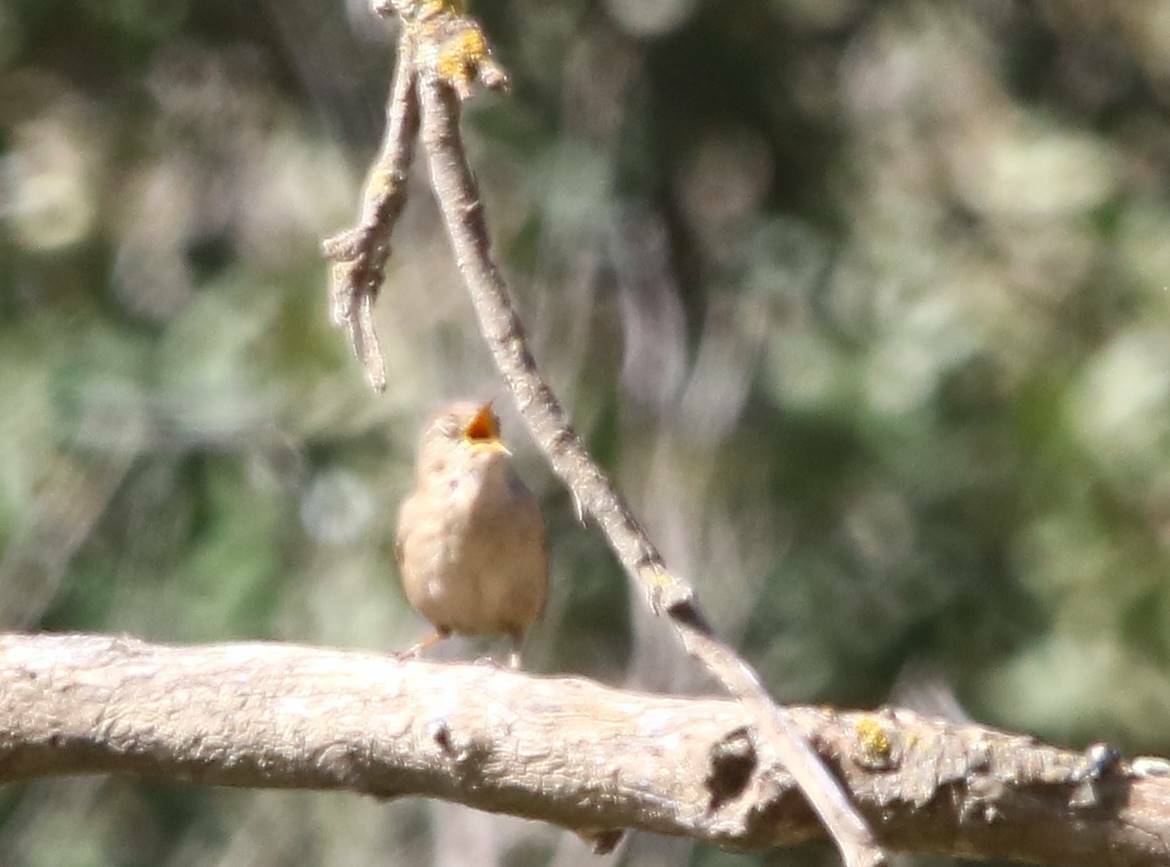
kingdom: Animalia
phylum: Chordata
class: Aves
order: Passeriformes
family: Troglodytidae
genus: Troglodytes
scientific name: Troglodytes troglodytes
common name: Eurasian wren
